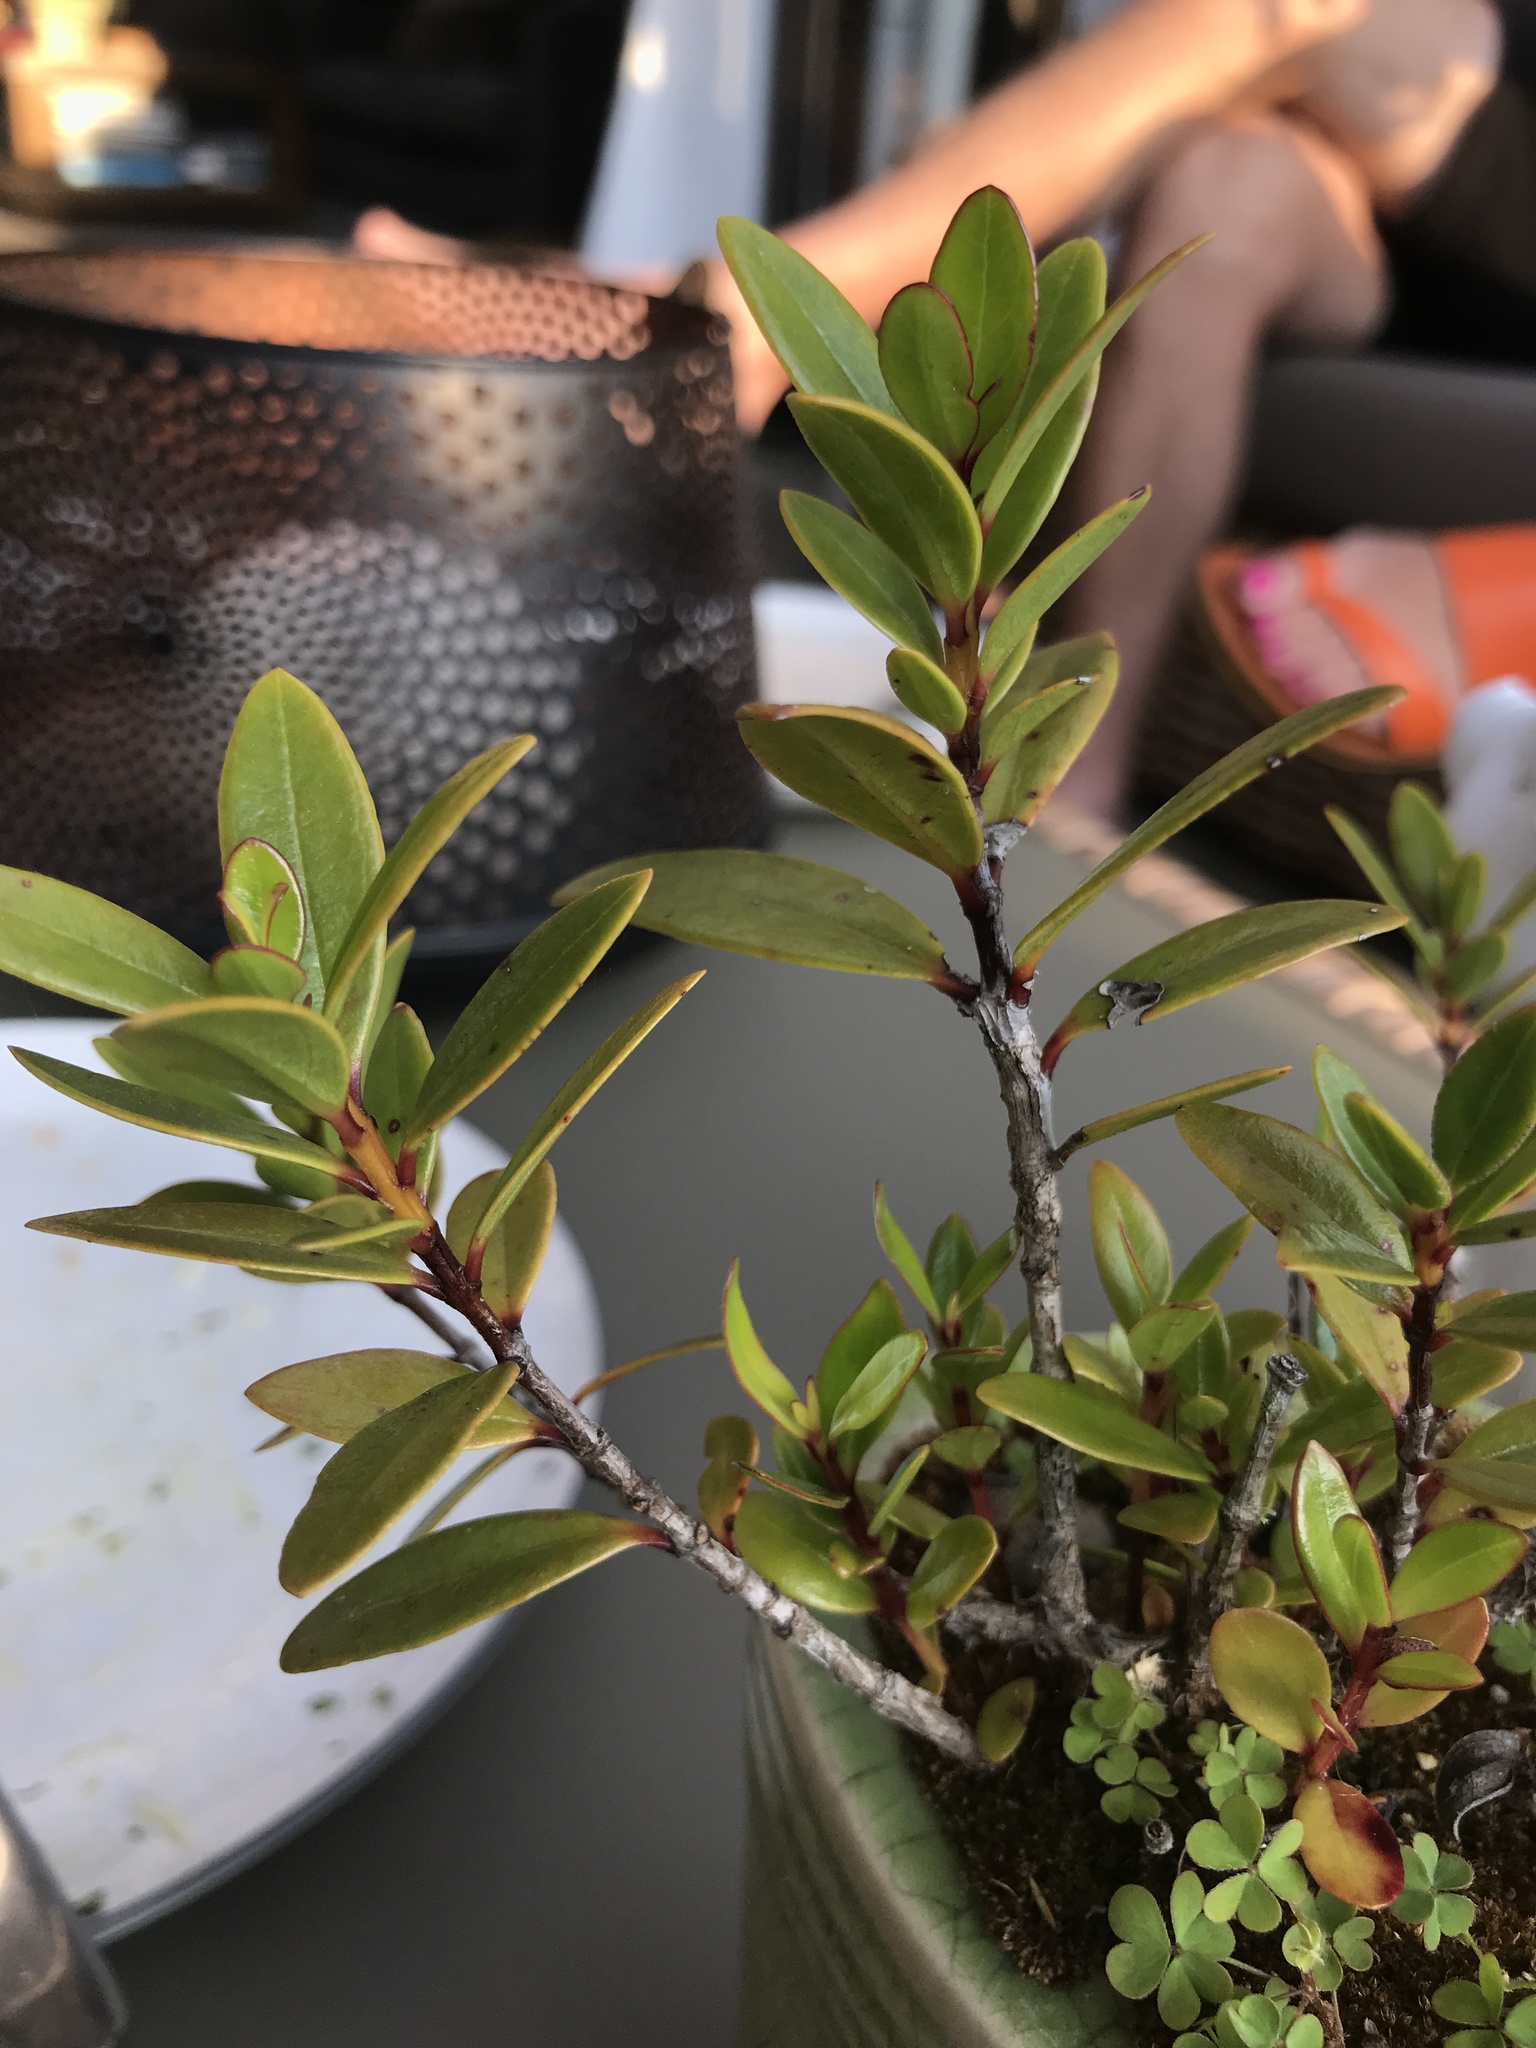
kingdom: Plantae
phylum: Tracheophyta
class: Magnoliopsida
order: Myrtales
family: Myrtaceae
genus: Metrosideros
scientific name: Metrosideros excelsa
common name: New zealand christmastree
